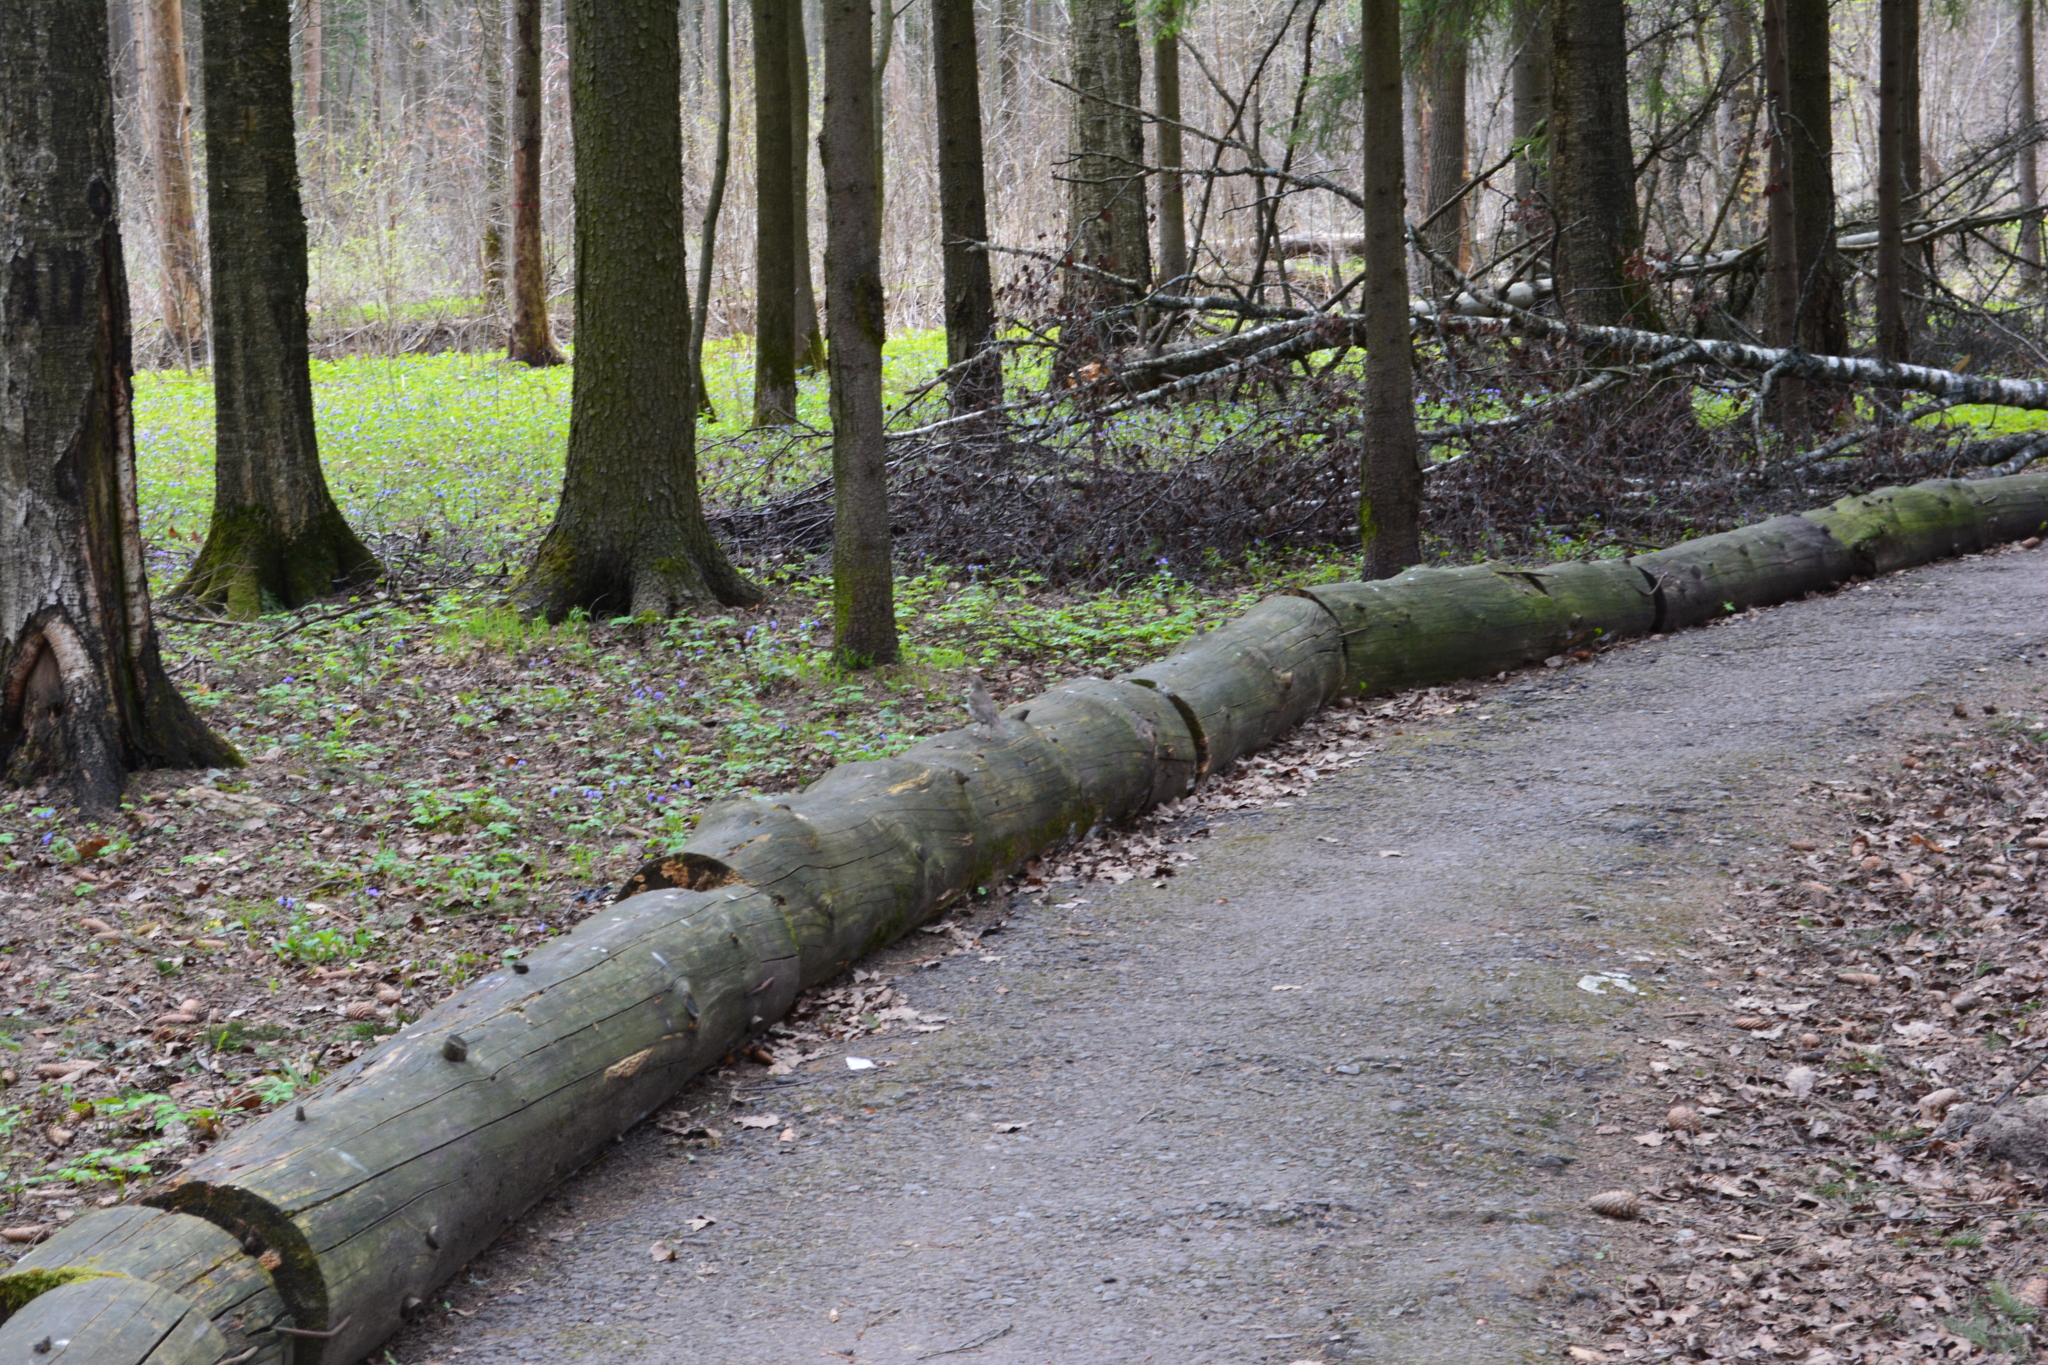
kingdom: Animalia
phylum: Chordata
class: Aves
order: Passeriformes
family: Turdidae
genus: Turdus
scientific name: Turdus philomelos
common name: Song thrush
